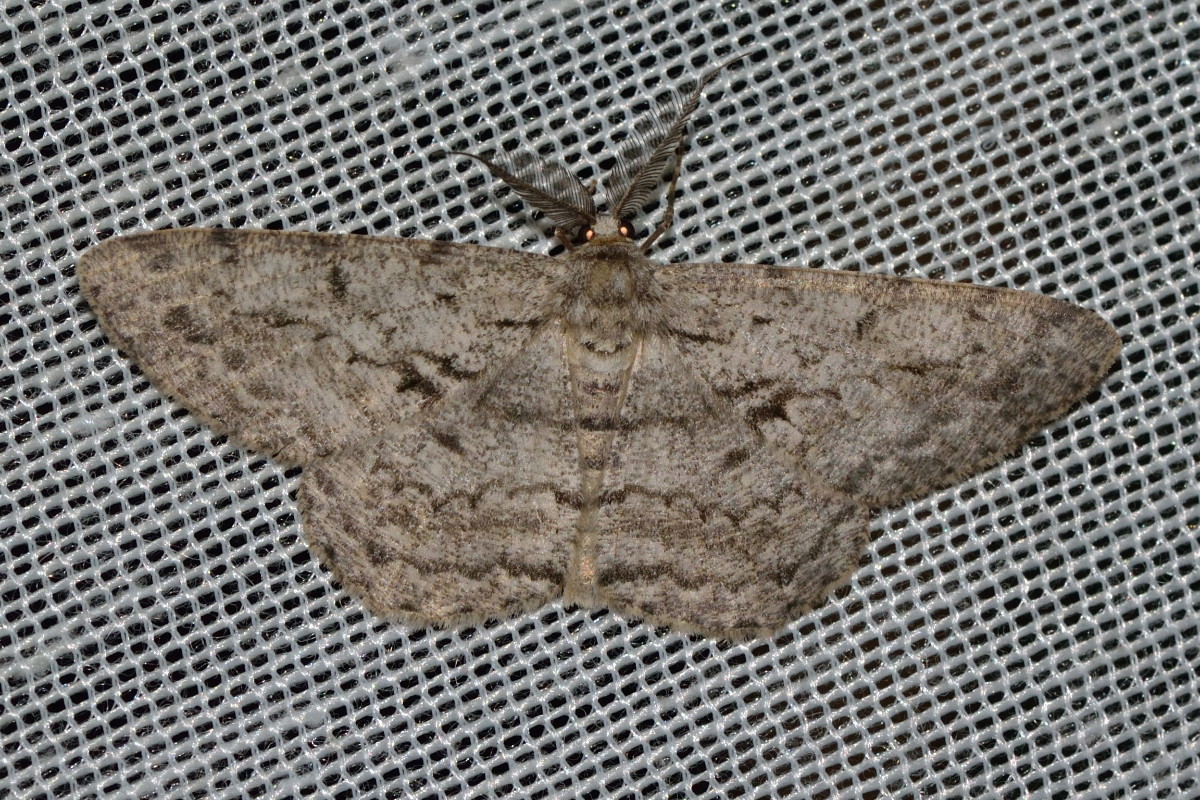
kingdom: Animalia
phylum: Arthropoda
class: Insecta
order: Lepidoptera
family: Geometridae
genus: Hypomecis
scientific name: Hypomecis roboraria
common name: Great oak beauty
